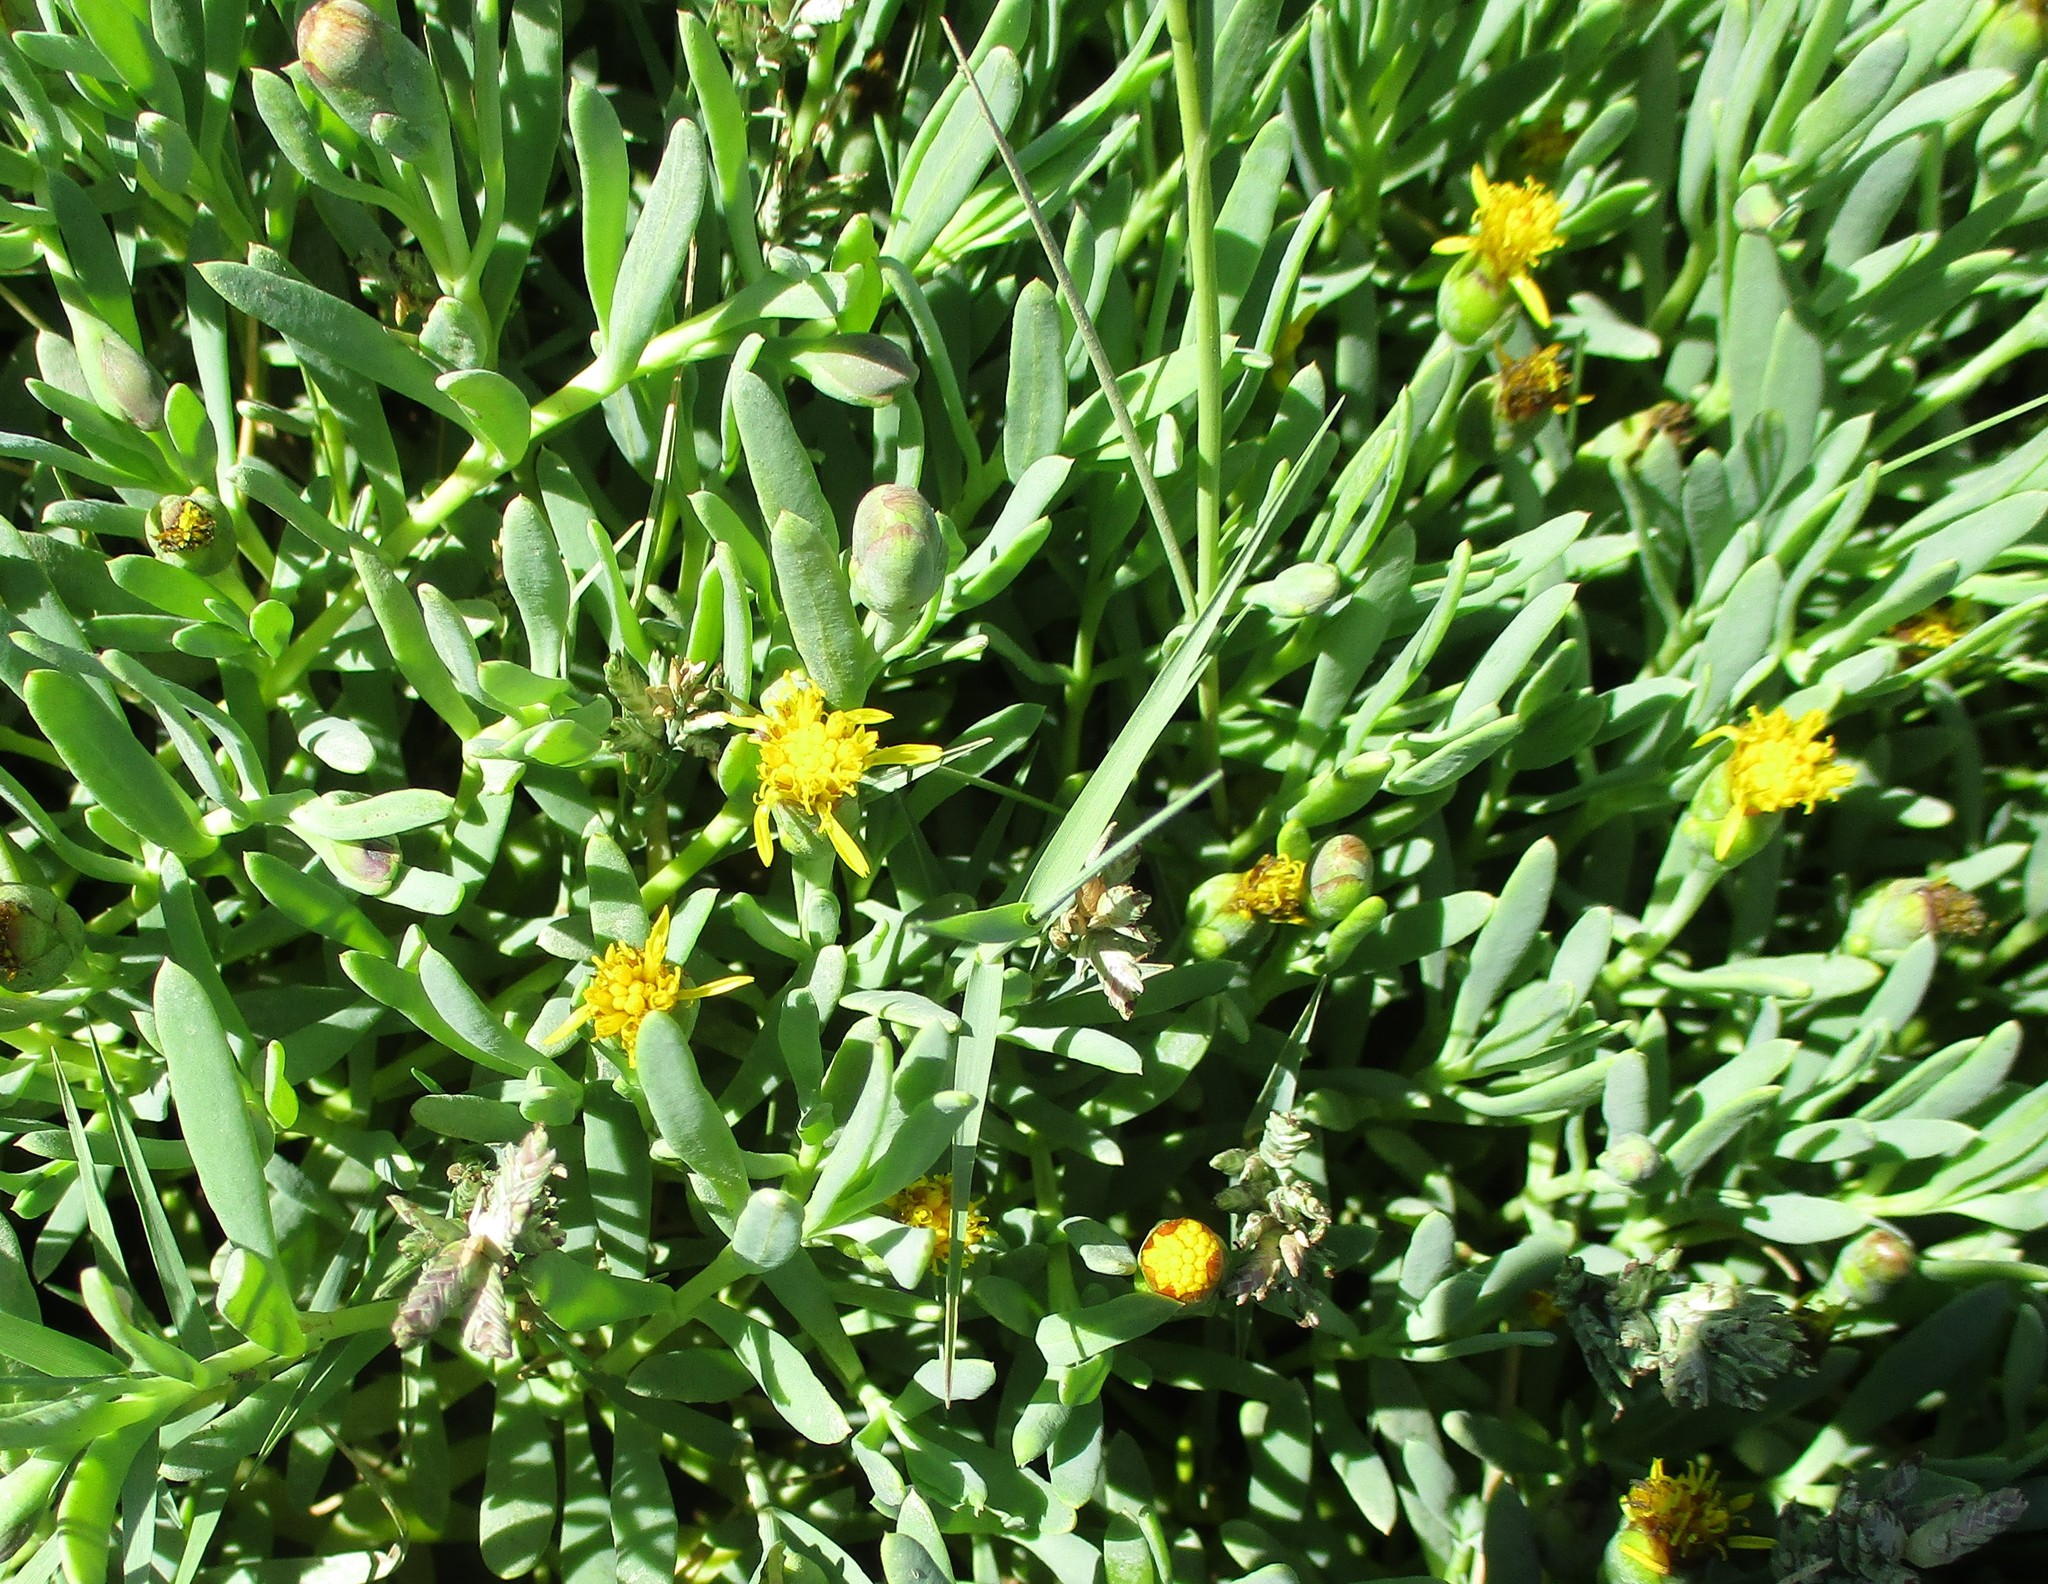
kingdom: Plantae
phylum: Tracheophyta
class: Magnoliopsida
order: Asterales
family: Asteraceae
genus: Jaumea
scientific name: Jaumea carnosa
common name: Fleshy jaumea
